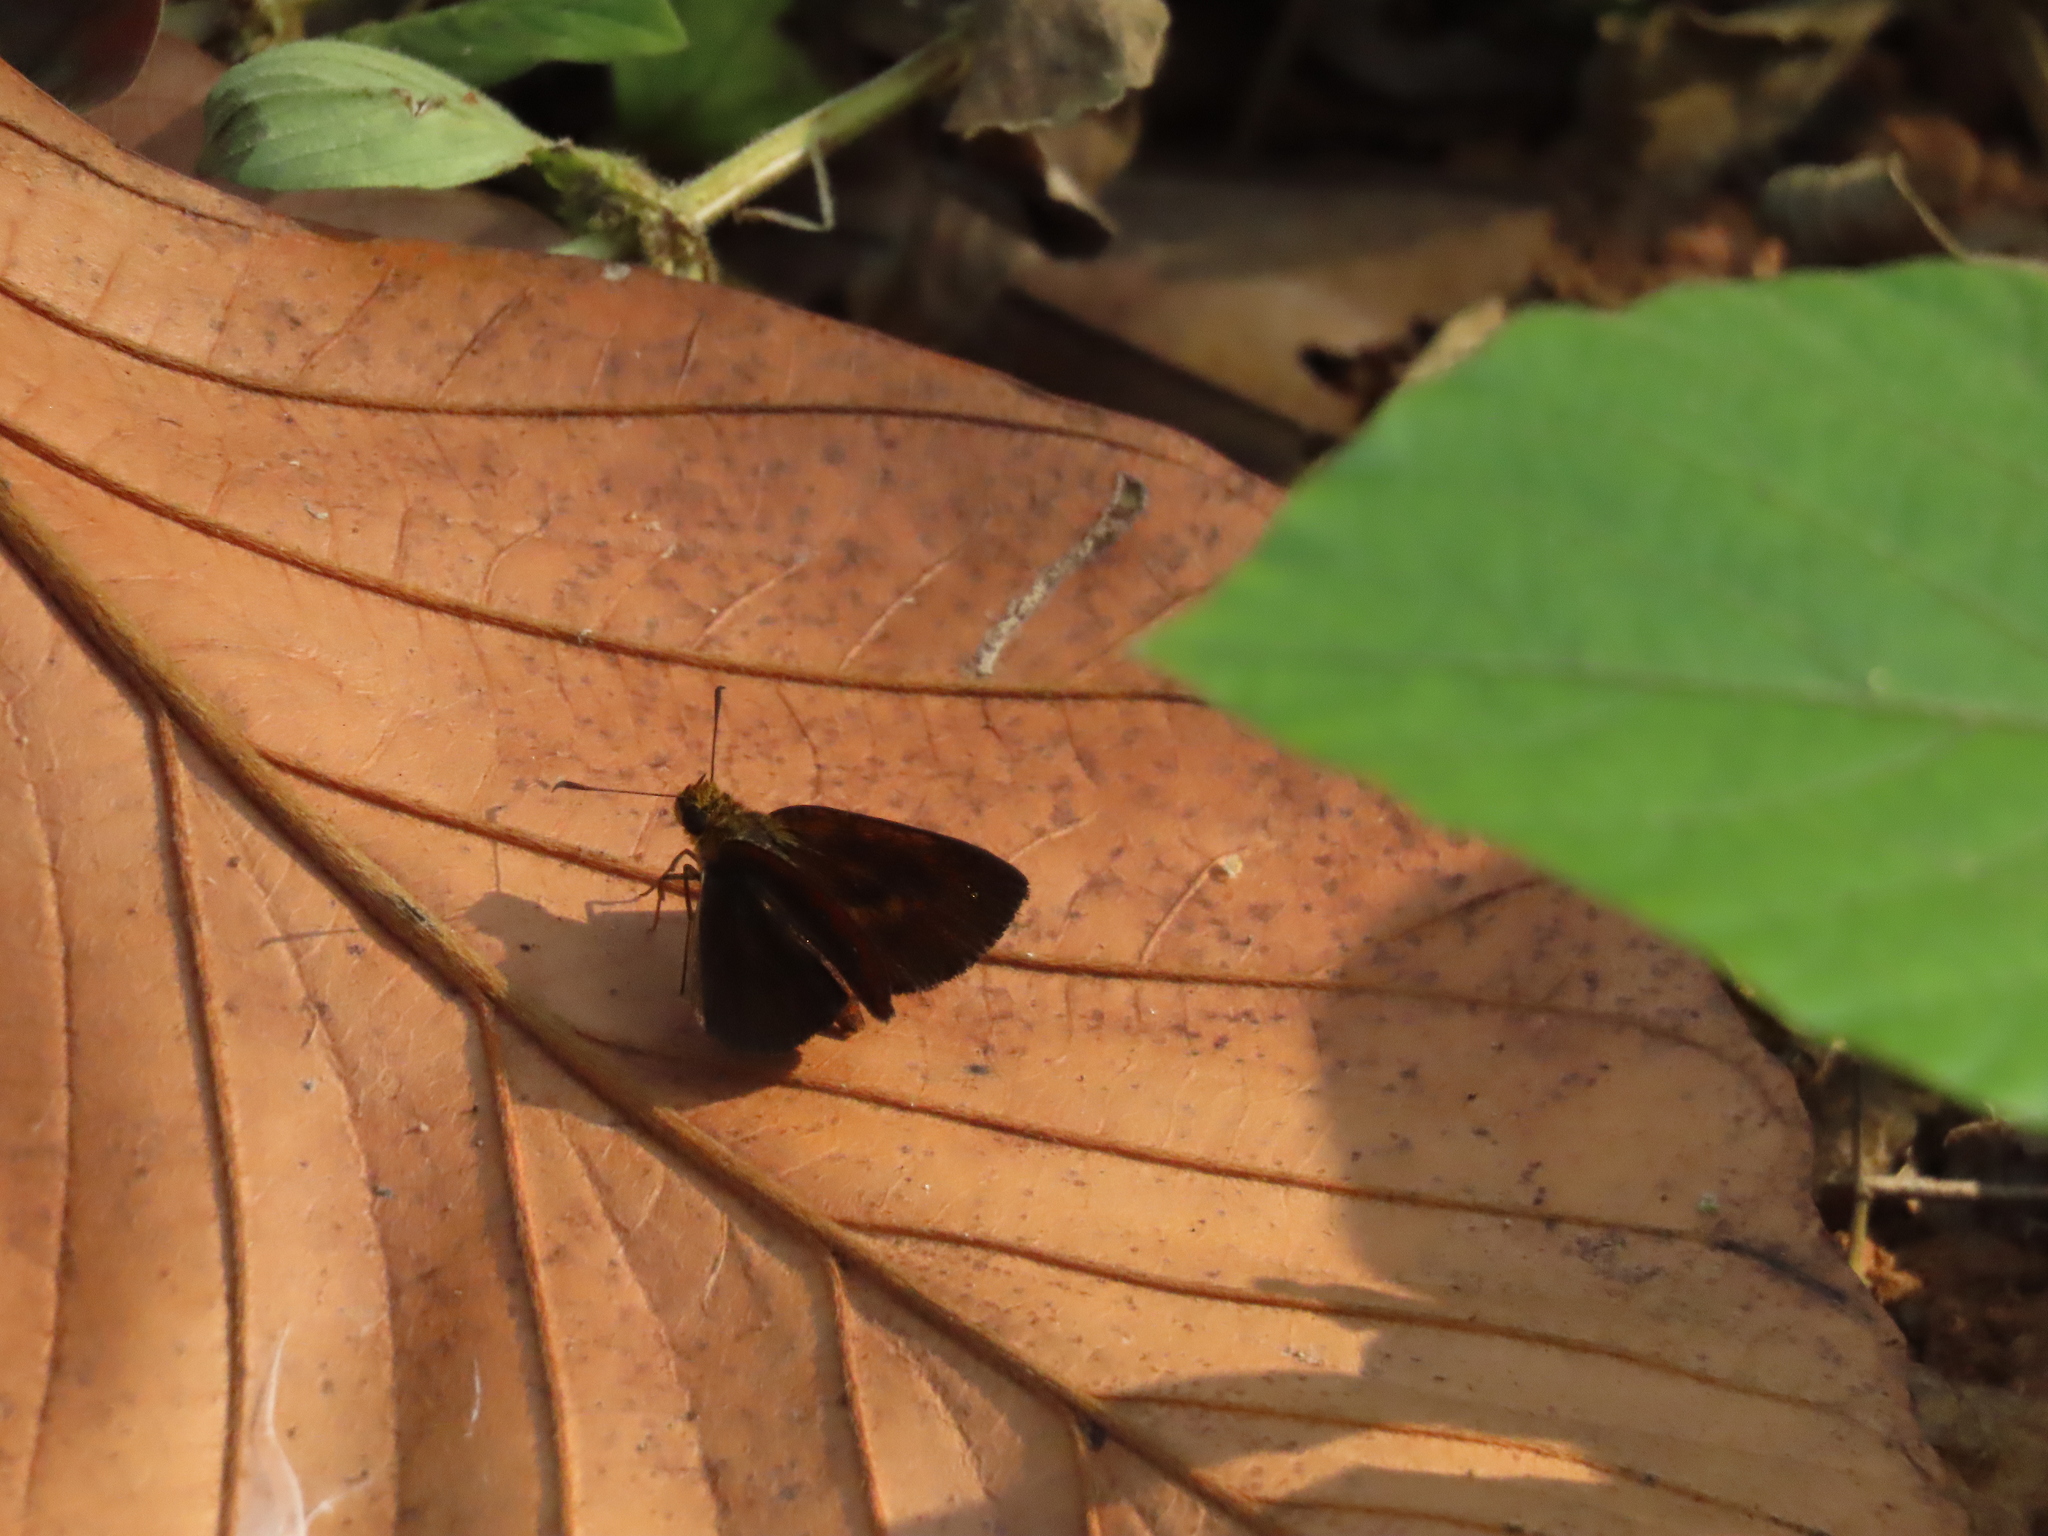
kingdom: Animalia
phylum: Arthropoda
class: Insecta
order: Lepidoptera
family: Hesperiidae
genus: Iambrix
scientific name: Iambrix salsala
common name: Chestnut bob
